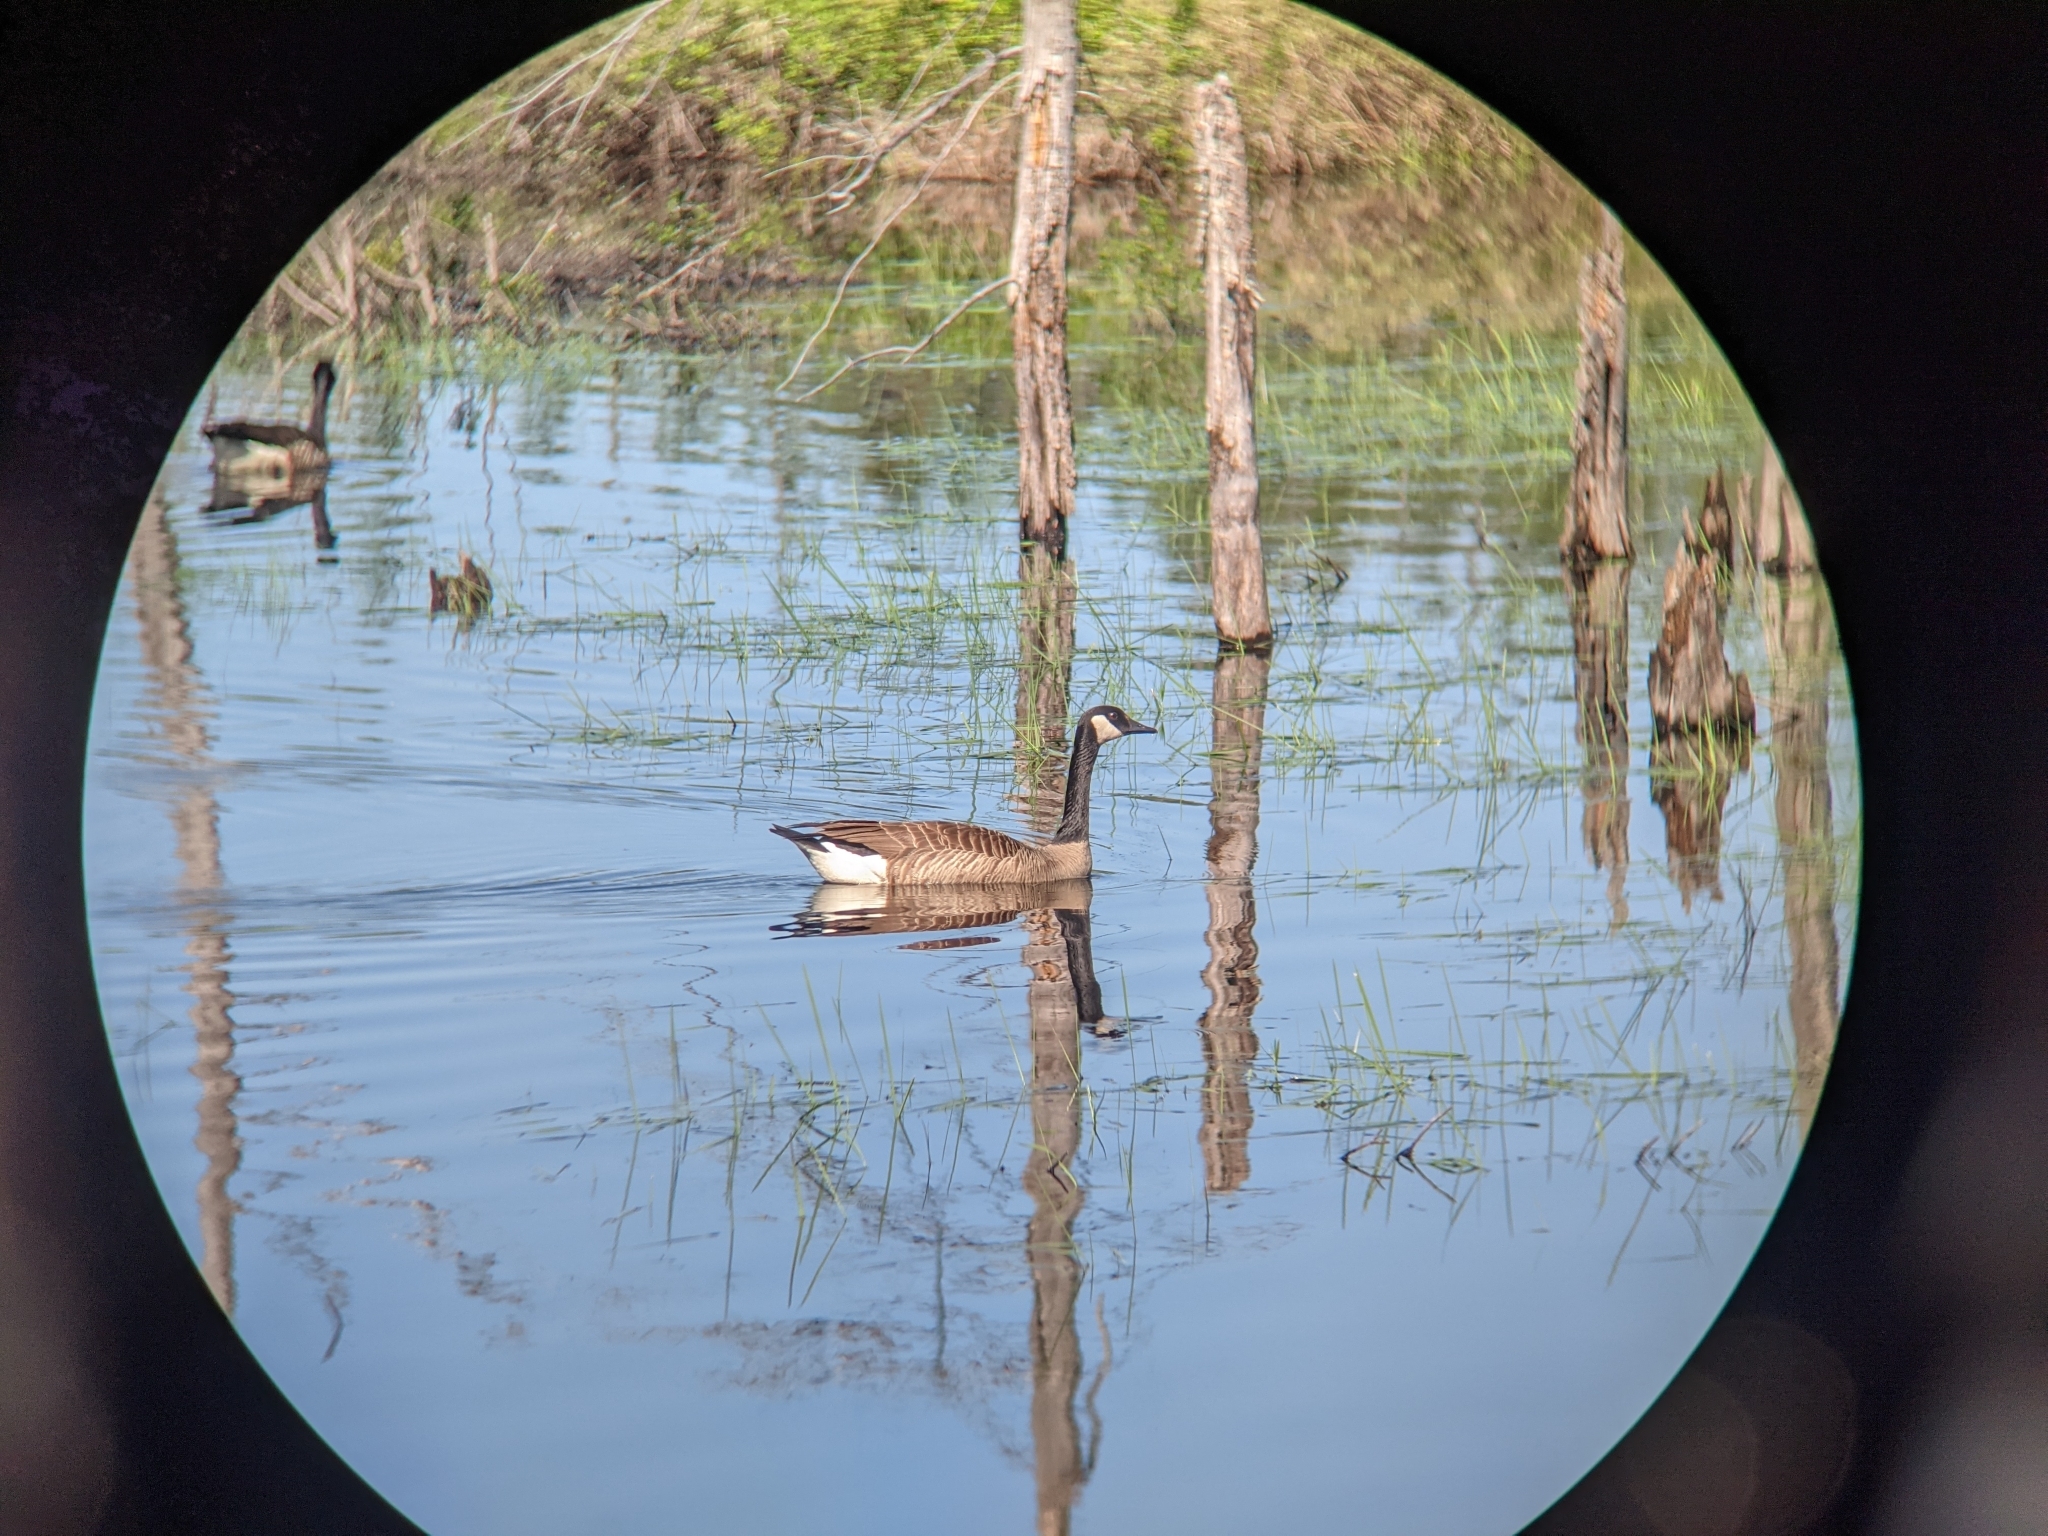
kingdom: Animalia
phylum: Chordata
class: Aves
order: Anseriformes
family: Anatidae
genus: Branta
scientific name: Branta canadensis
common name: Canada goose
